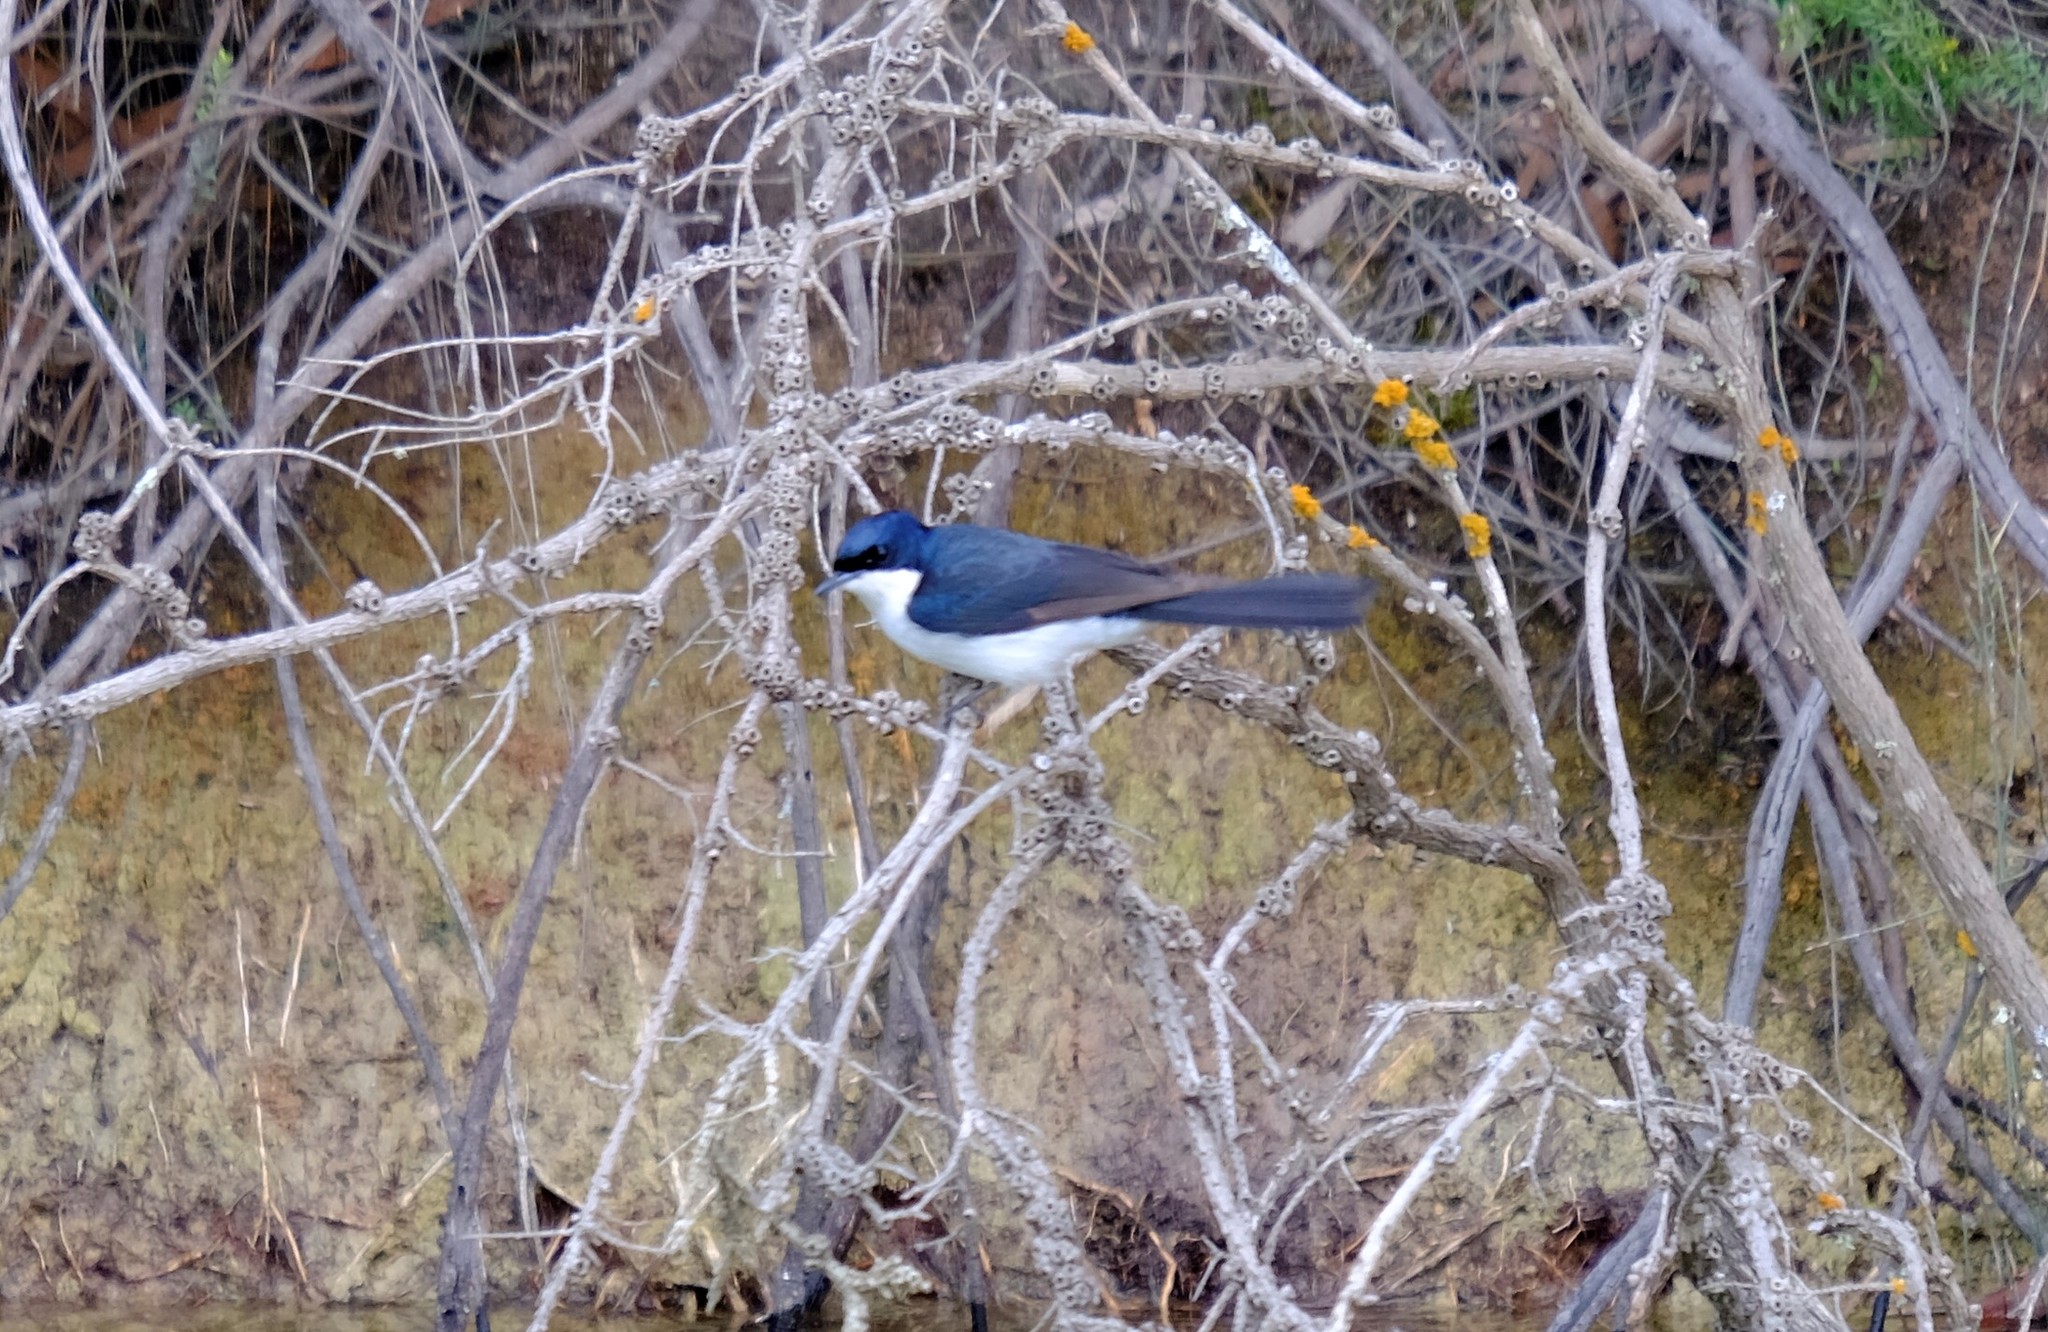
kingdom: Animalia
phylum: Chordata
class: Aves
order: Passeriformes
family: Monarchidae
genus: Myiagra
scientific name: Myiagra inquieta
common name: Restless flycatcher
